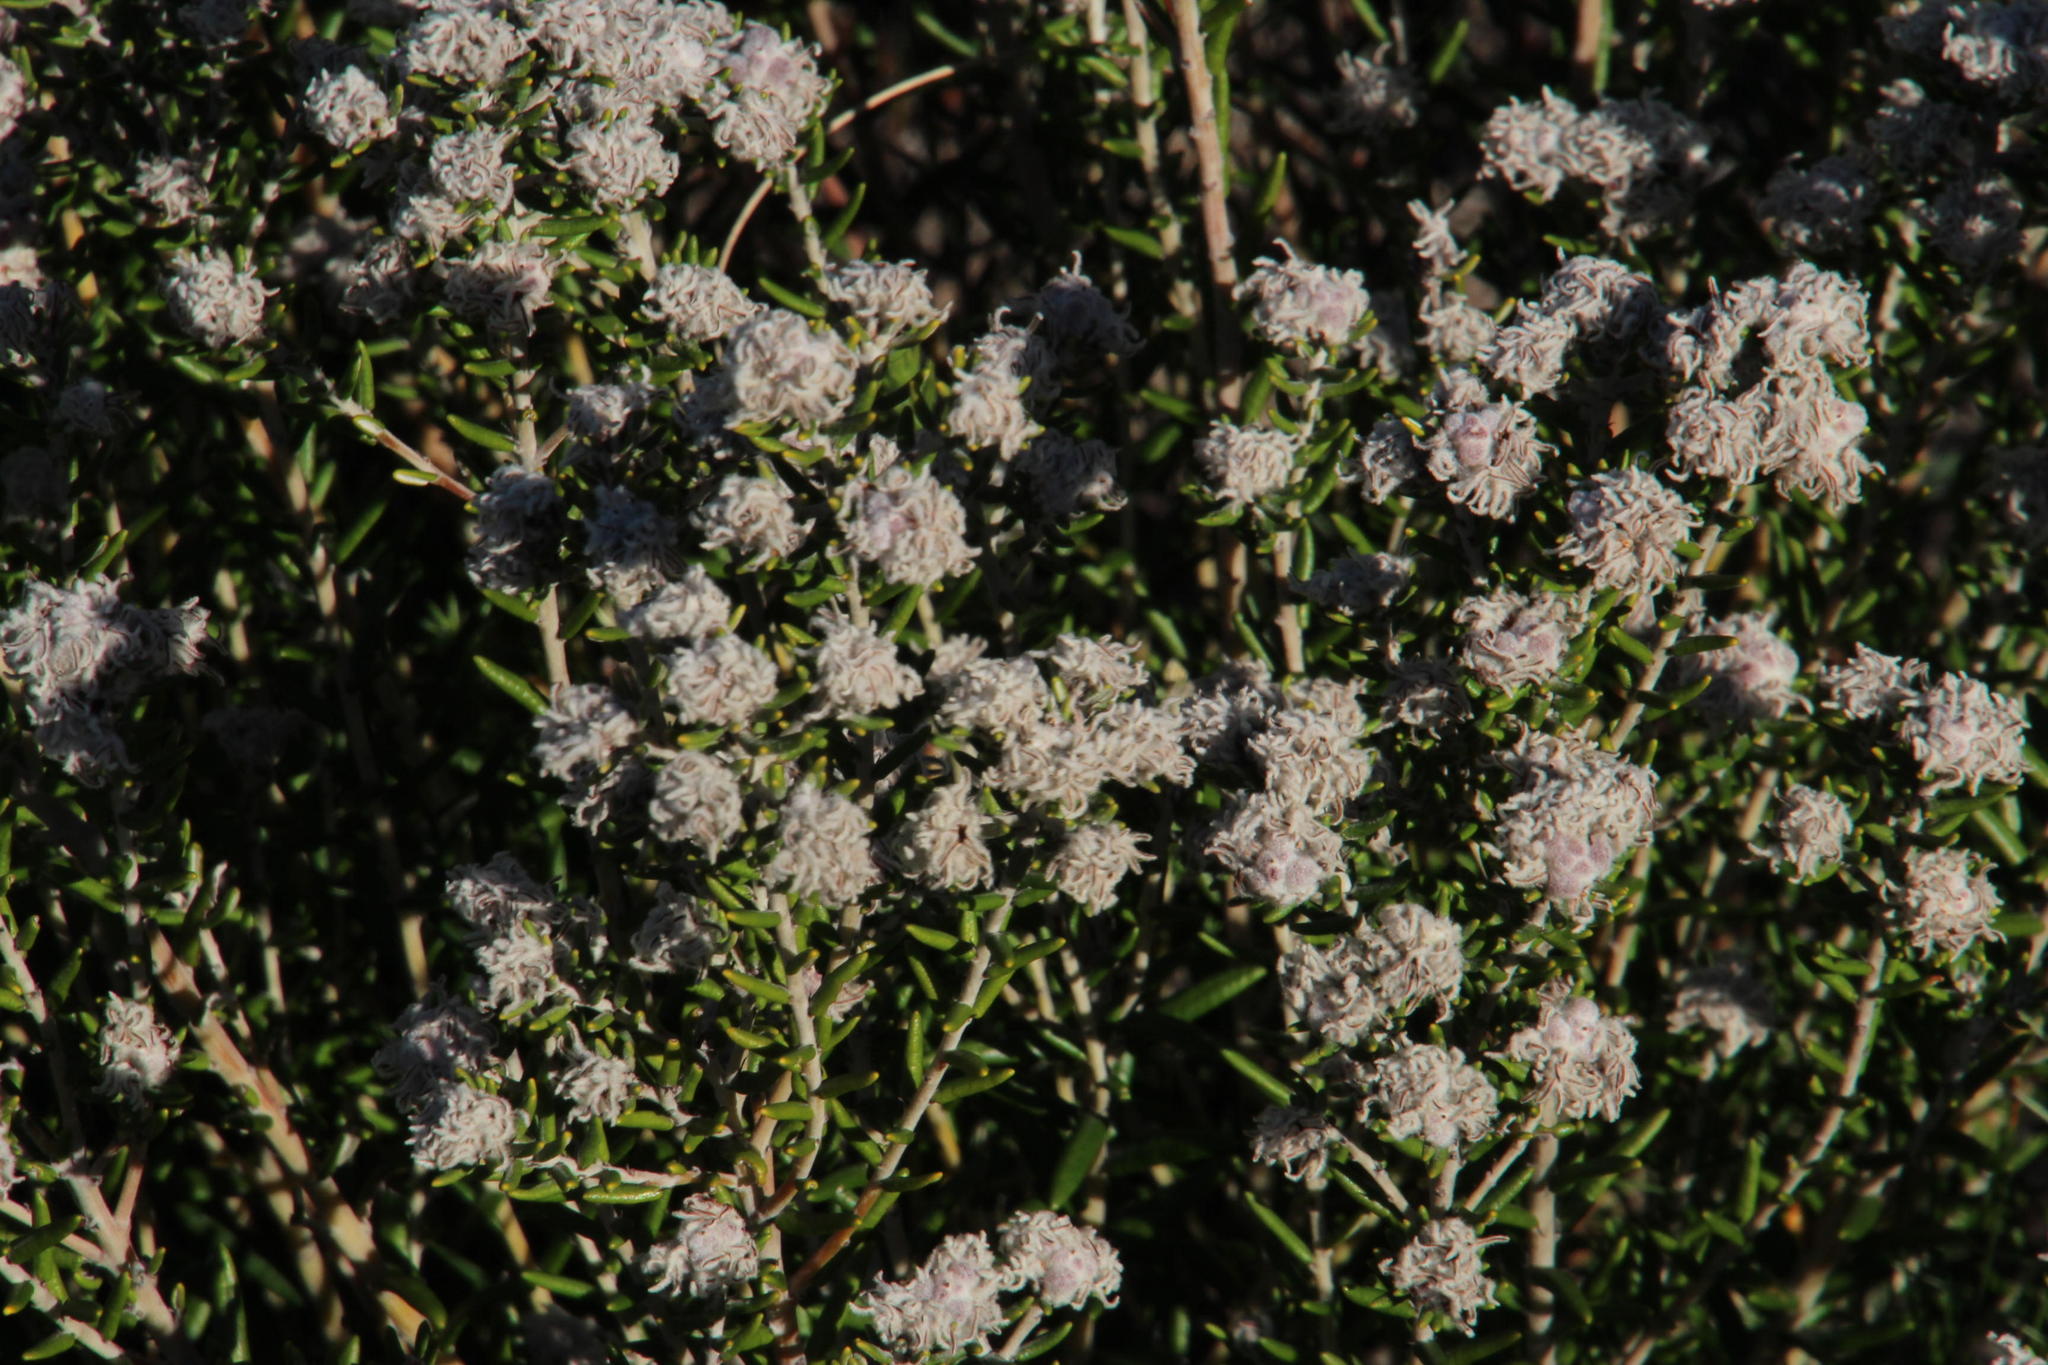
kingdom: Plantae
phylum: Tracheophyta
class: Magnoliopsida
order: Rosales
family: Rhamnaceae
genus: Trichocephalus
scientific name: Trichocephalus stipularis
